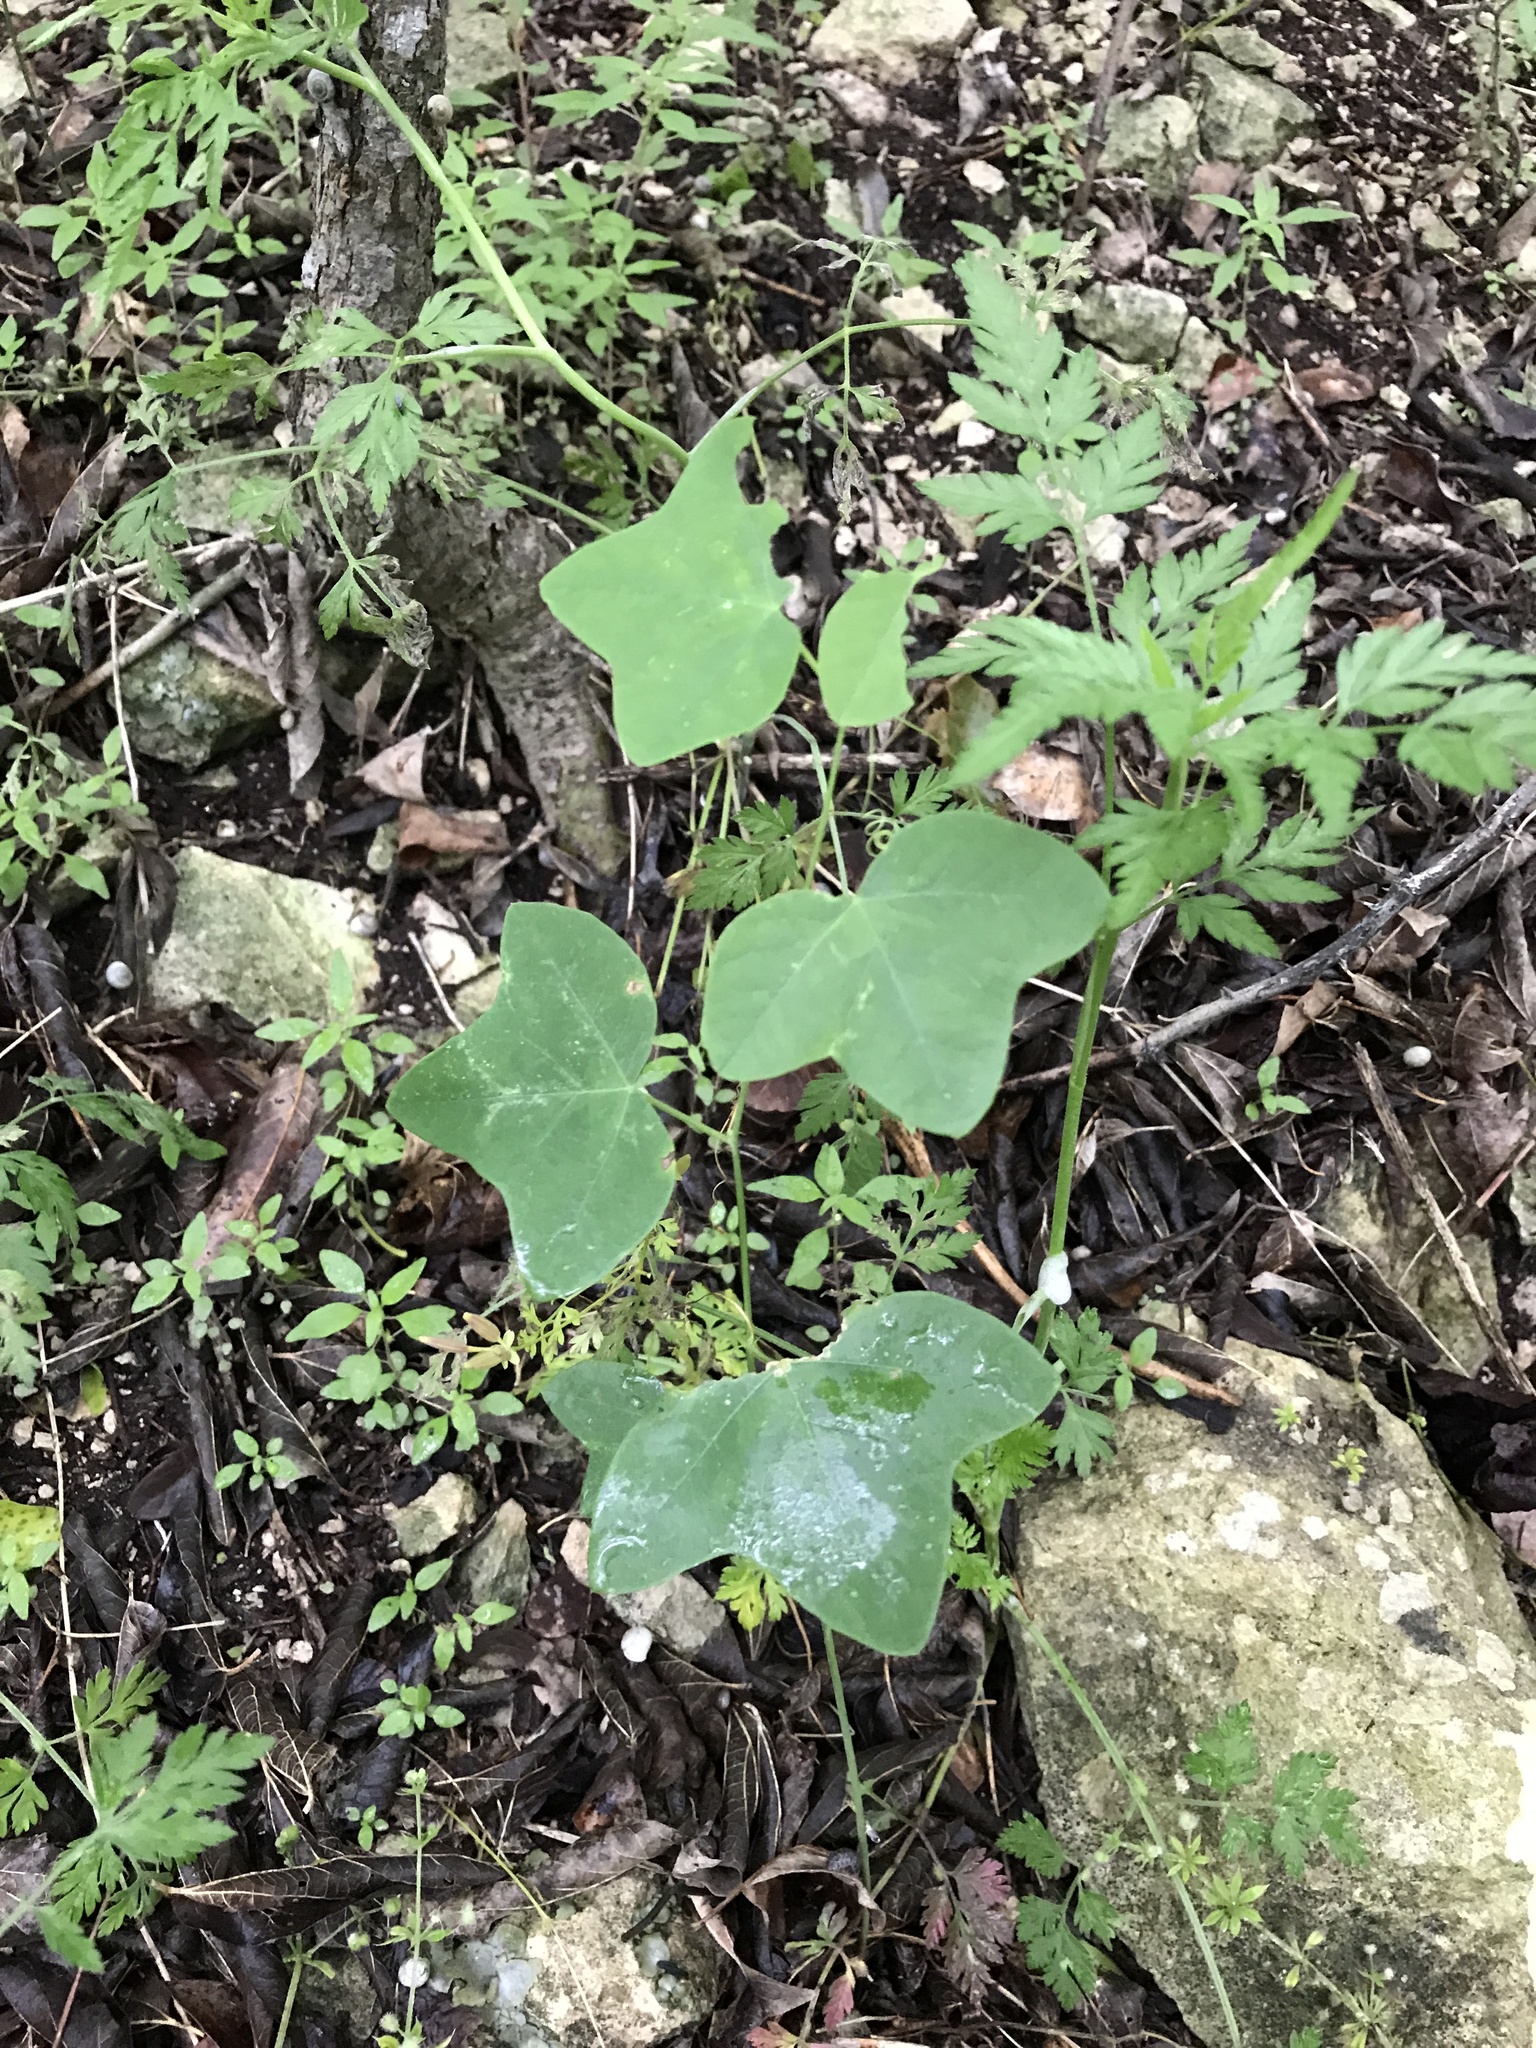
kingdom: Plantae
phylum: Tracheophyta
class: Magnoliopsida
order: Malpighiales
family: Passifloraceae
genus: Passiflora
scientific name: Passiflora lutea
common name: Yellow passionflower
